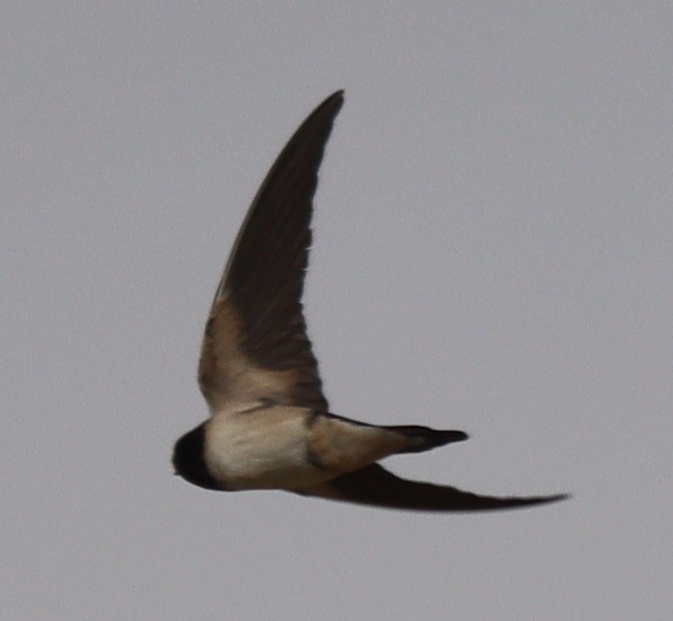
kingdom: Animalia
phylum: Chordata
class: Aves
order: Passeriformes
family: Hirundinidae
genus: Hirundo
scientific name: Hirundo rustica
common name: Barn swallow
